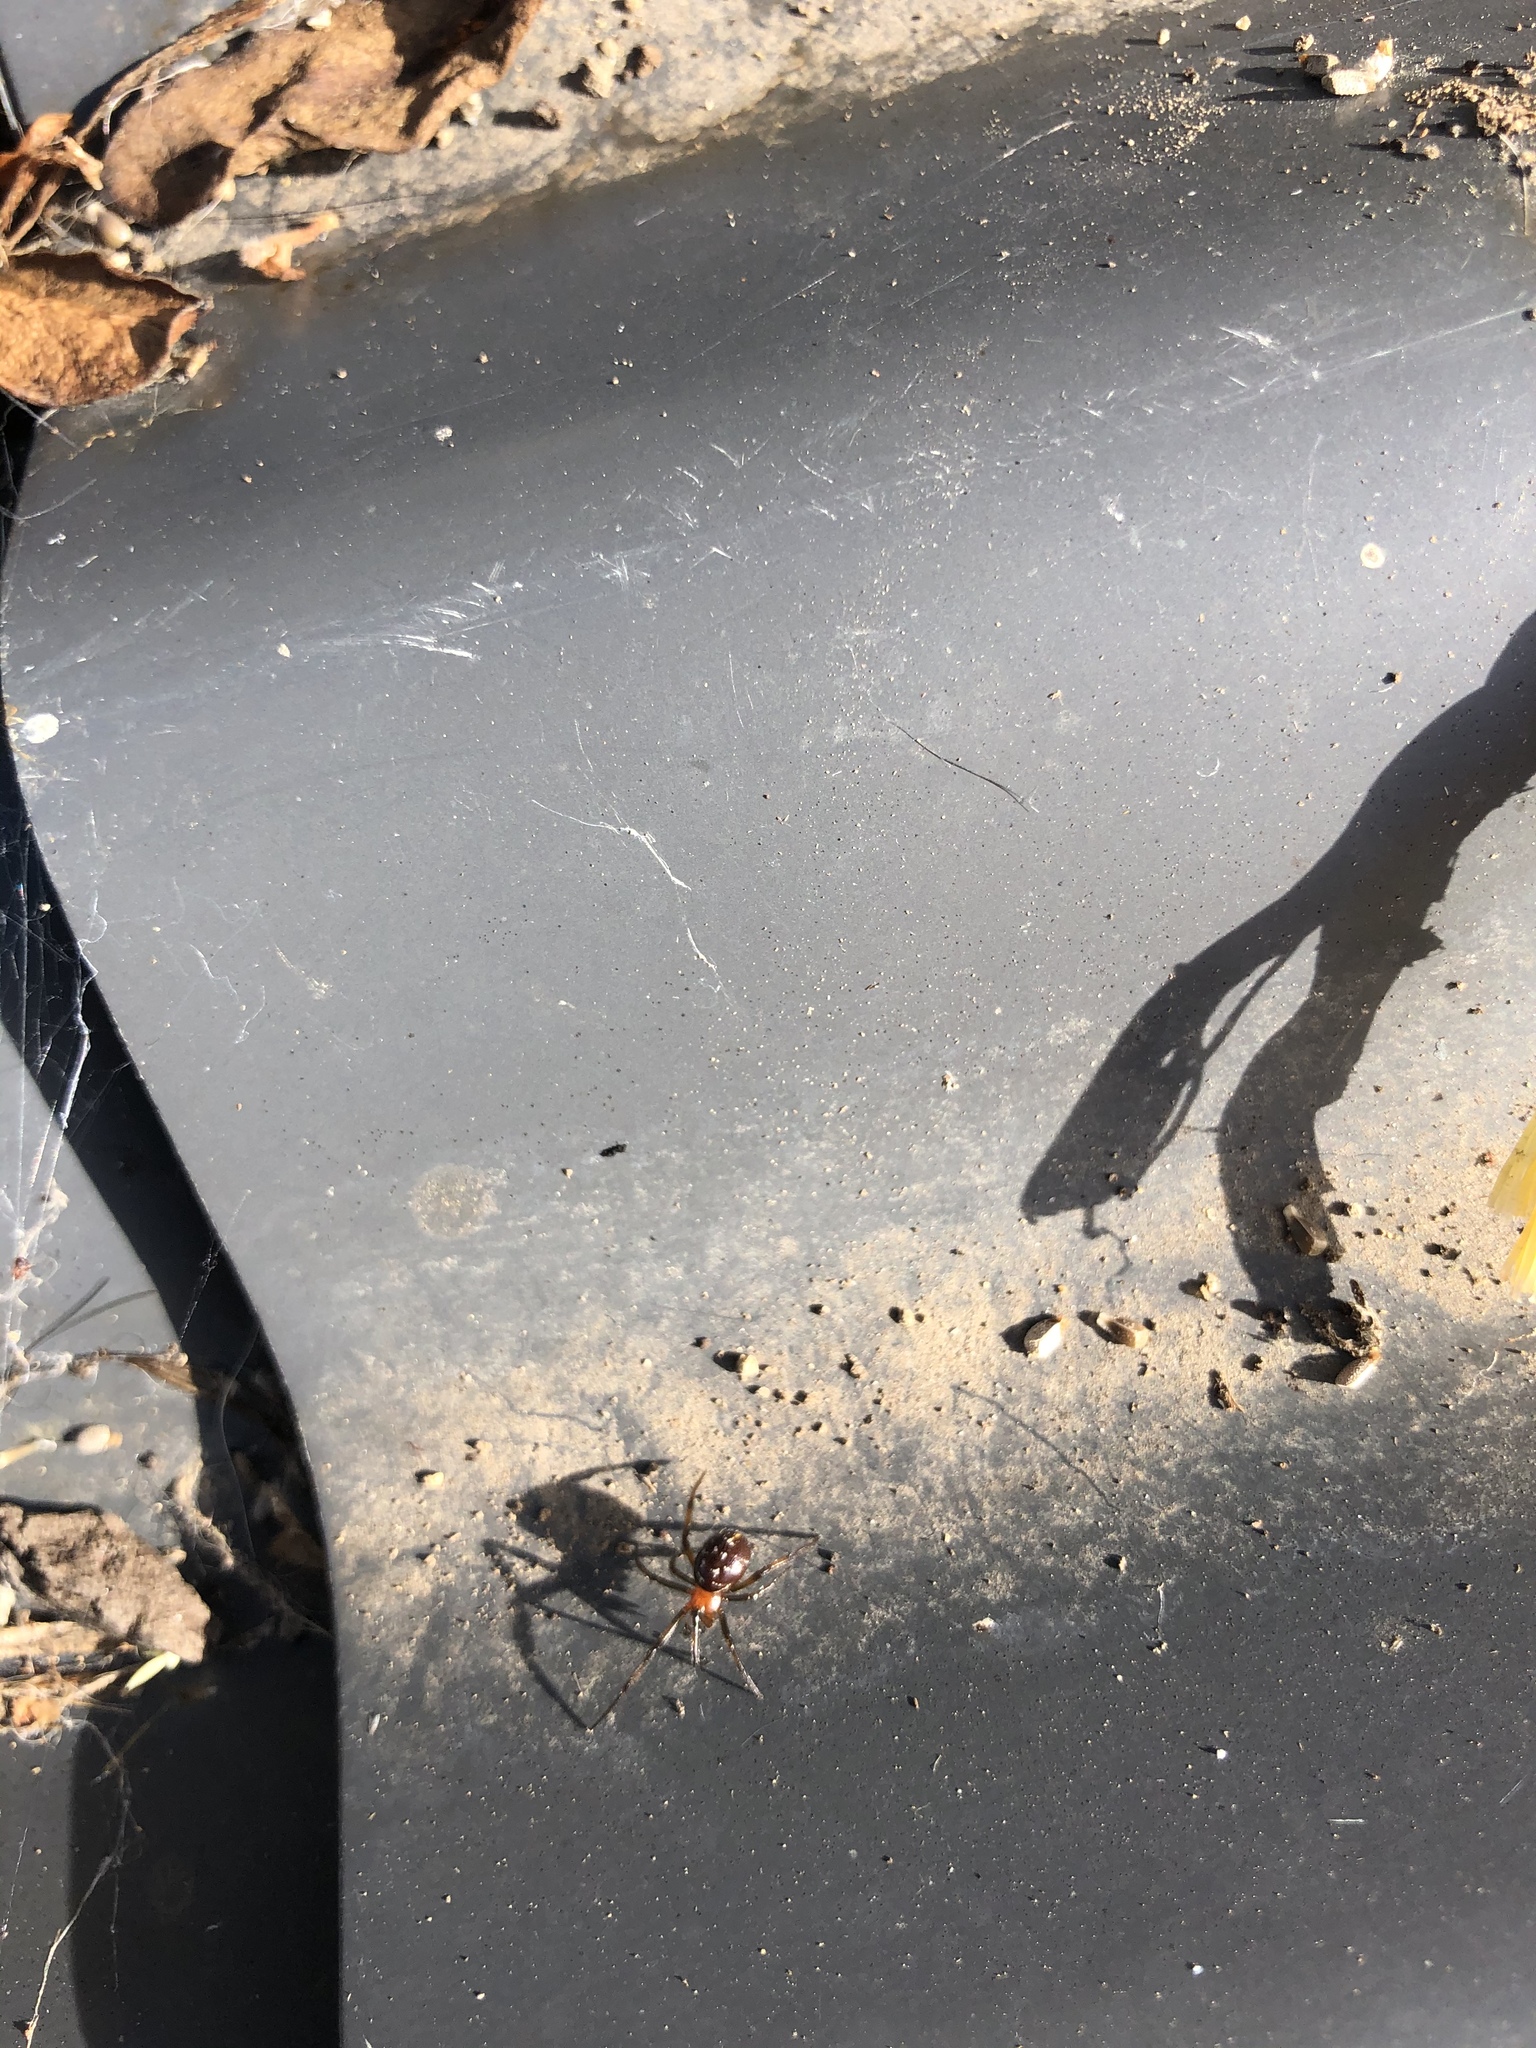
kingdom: Animalia
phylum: Arthropoda
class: Arachnida
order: Araneae
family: Theridiidae
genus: Steatoda
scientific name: Steatoda capensis
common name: Cobweb weaver
